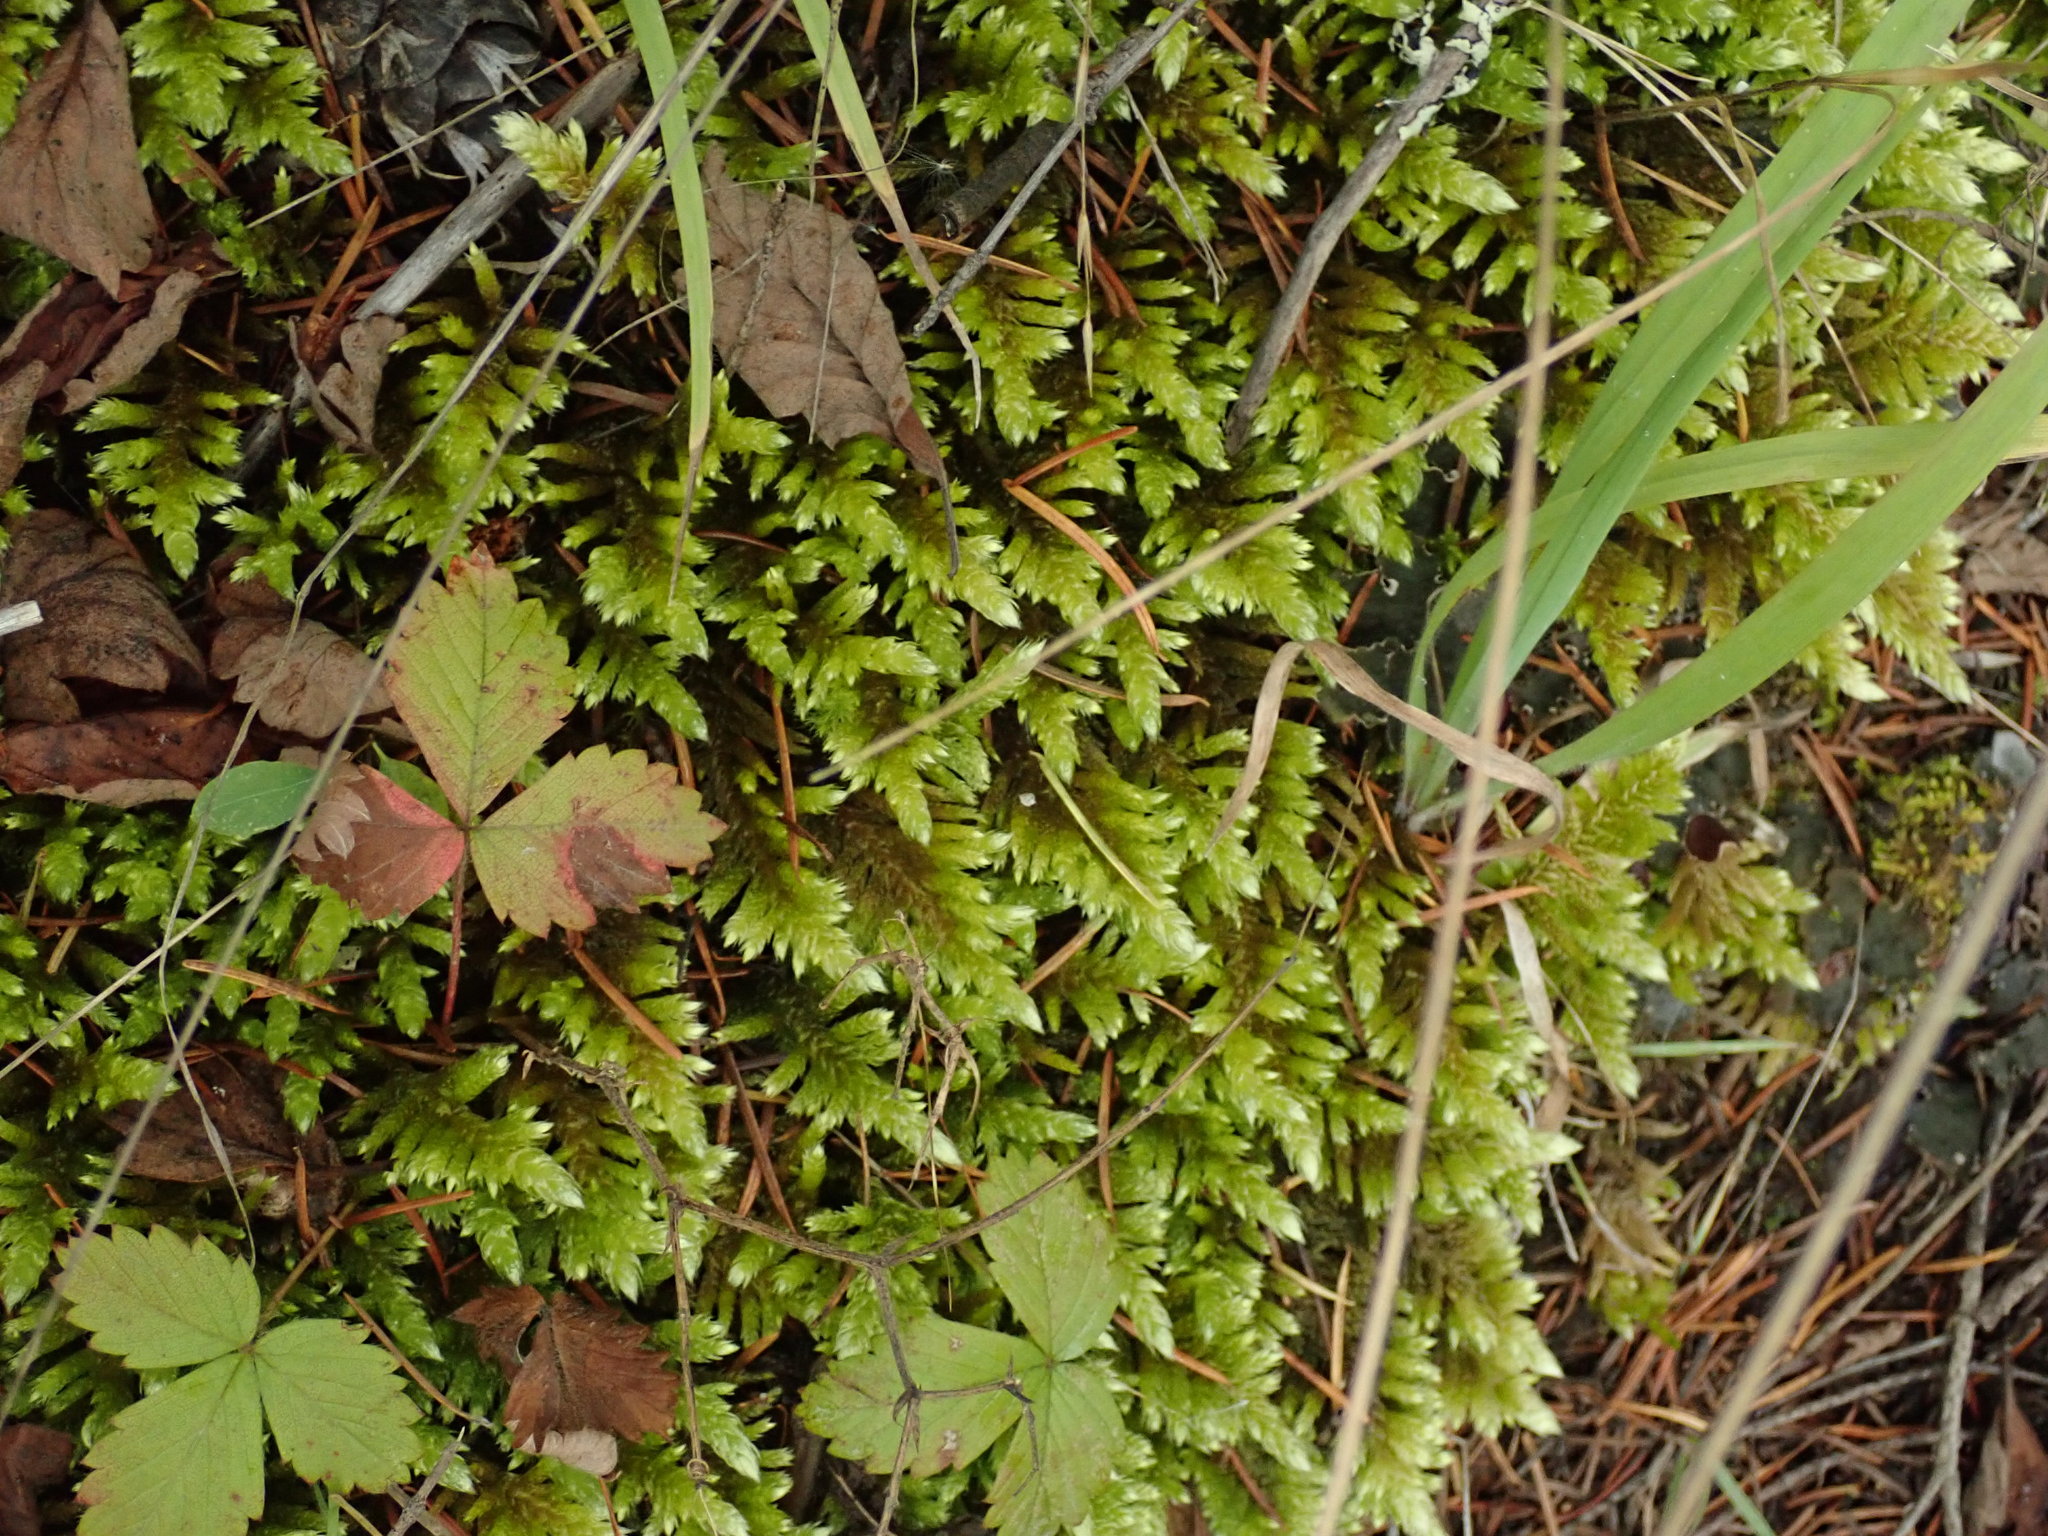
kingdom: Plantae
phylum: Bryophyta
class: Bryopsida
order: Hypnales
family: Brachytheciaceae
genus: Homalothecium
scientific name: Homalothecium megaptilum
